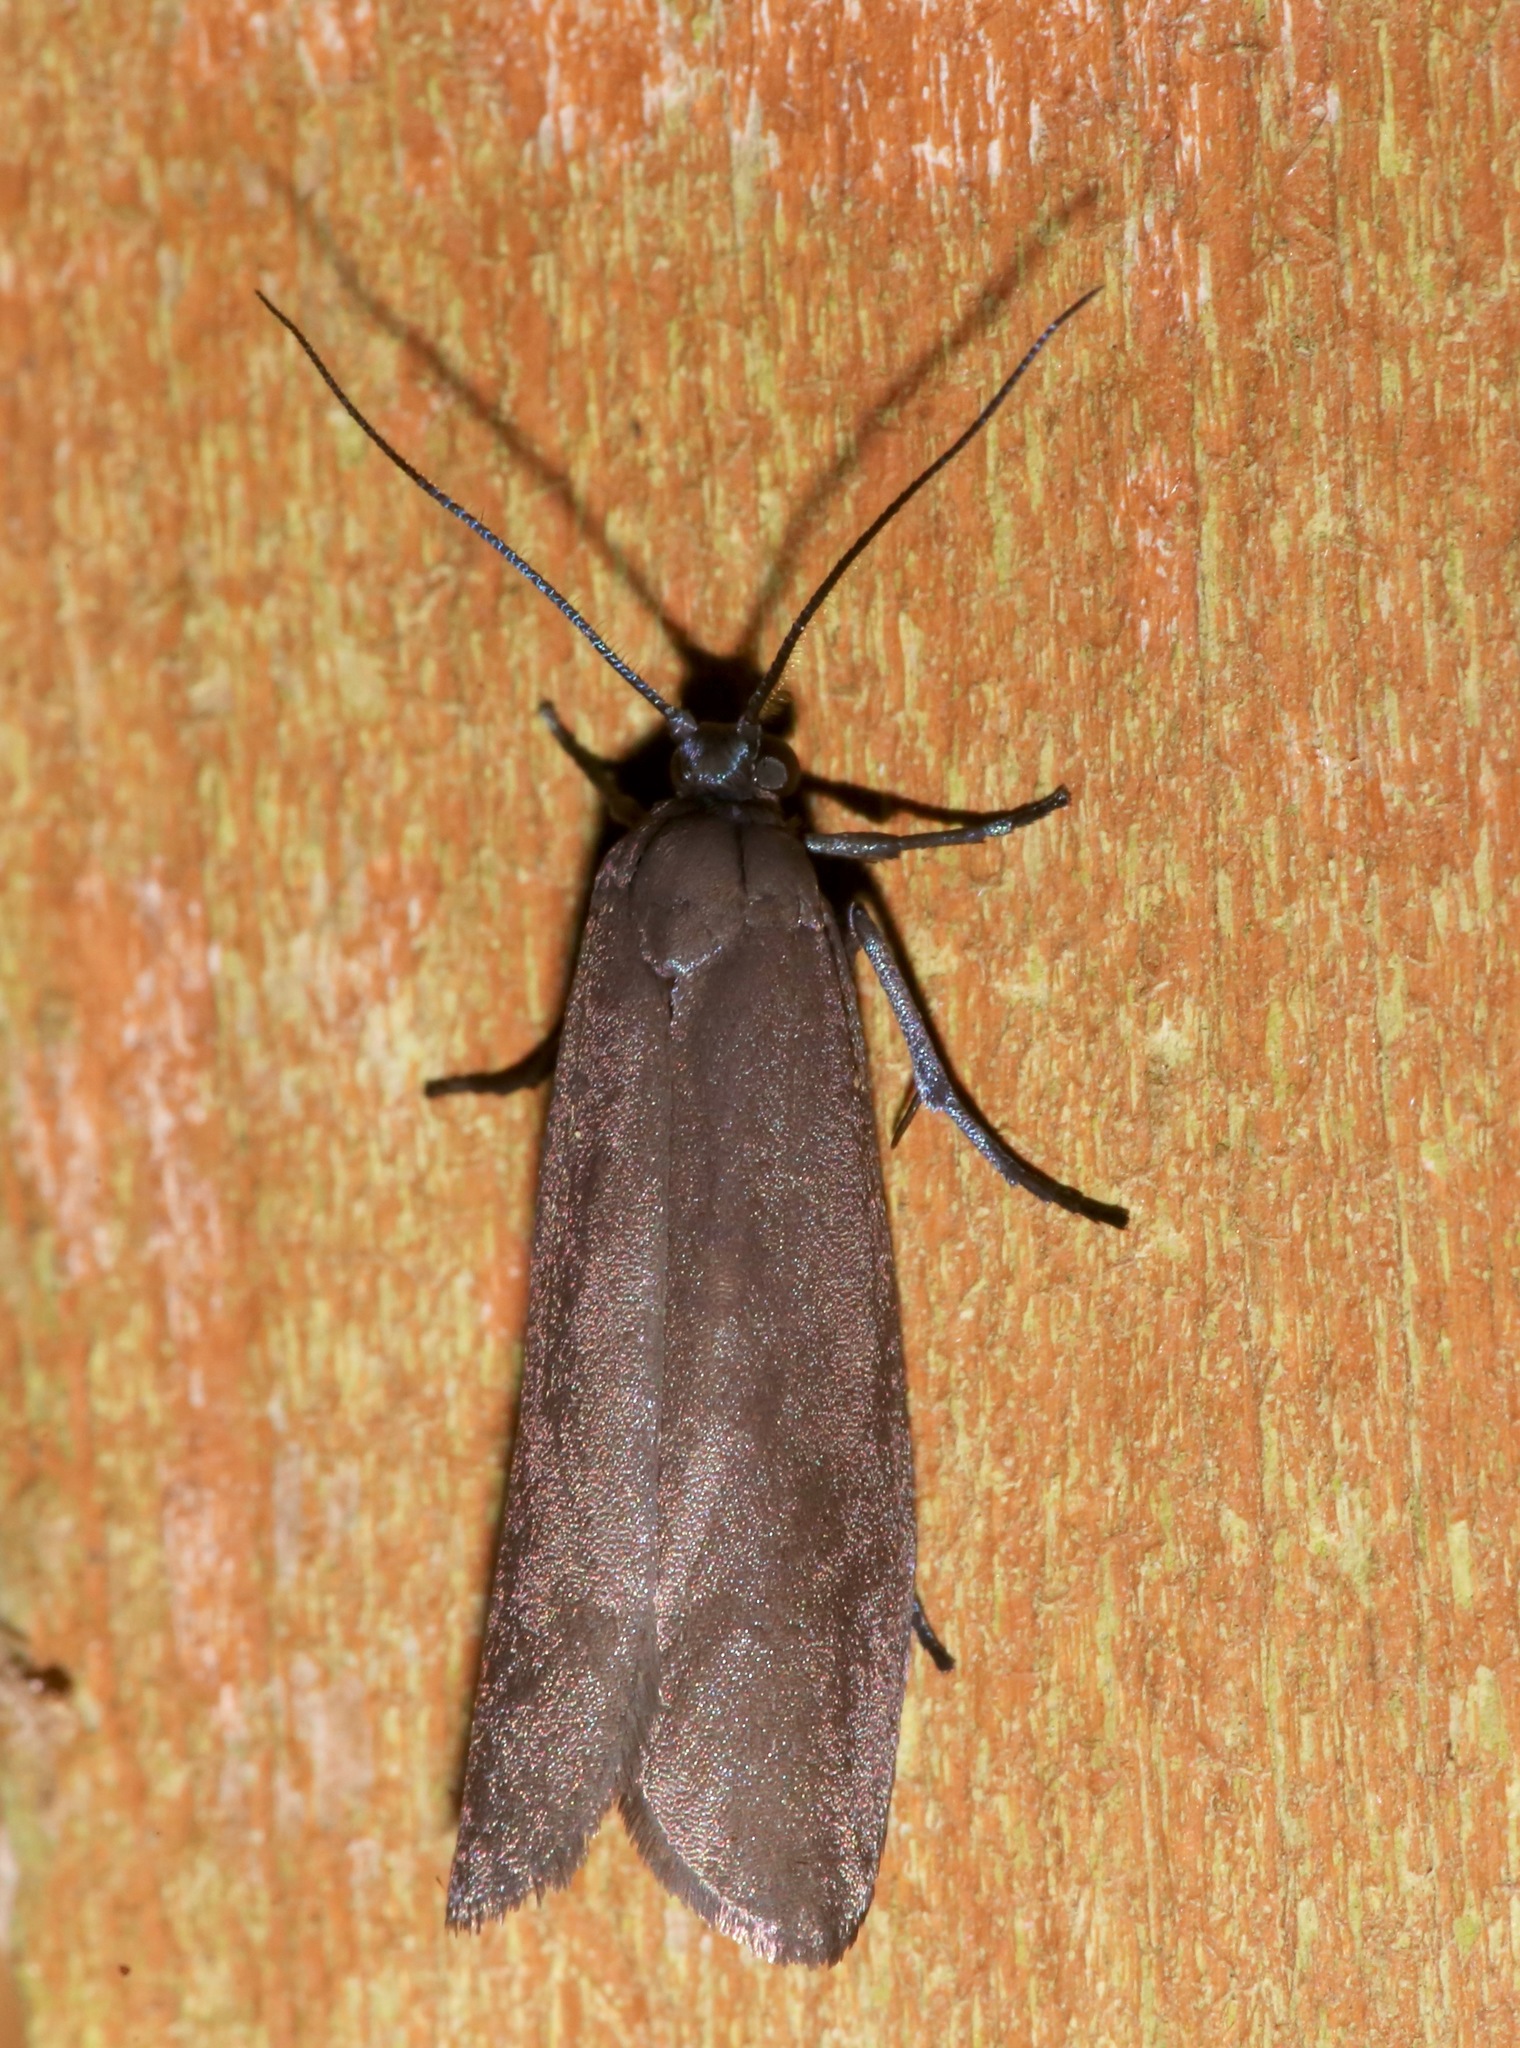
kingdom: Animalia
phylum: Arthropoda
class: Insecta
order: Lepidoptera
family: Urodidae
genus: Urodus
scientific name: Urodus parvula
